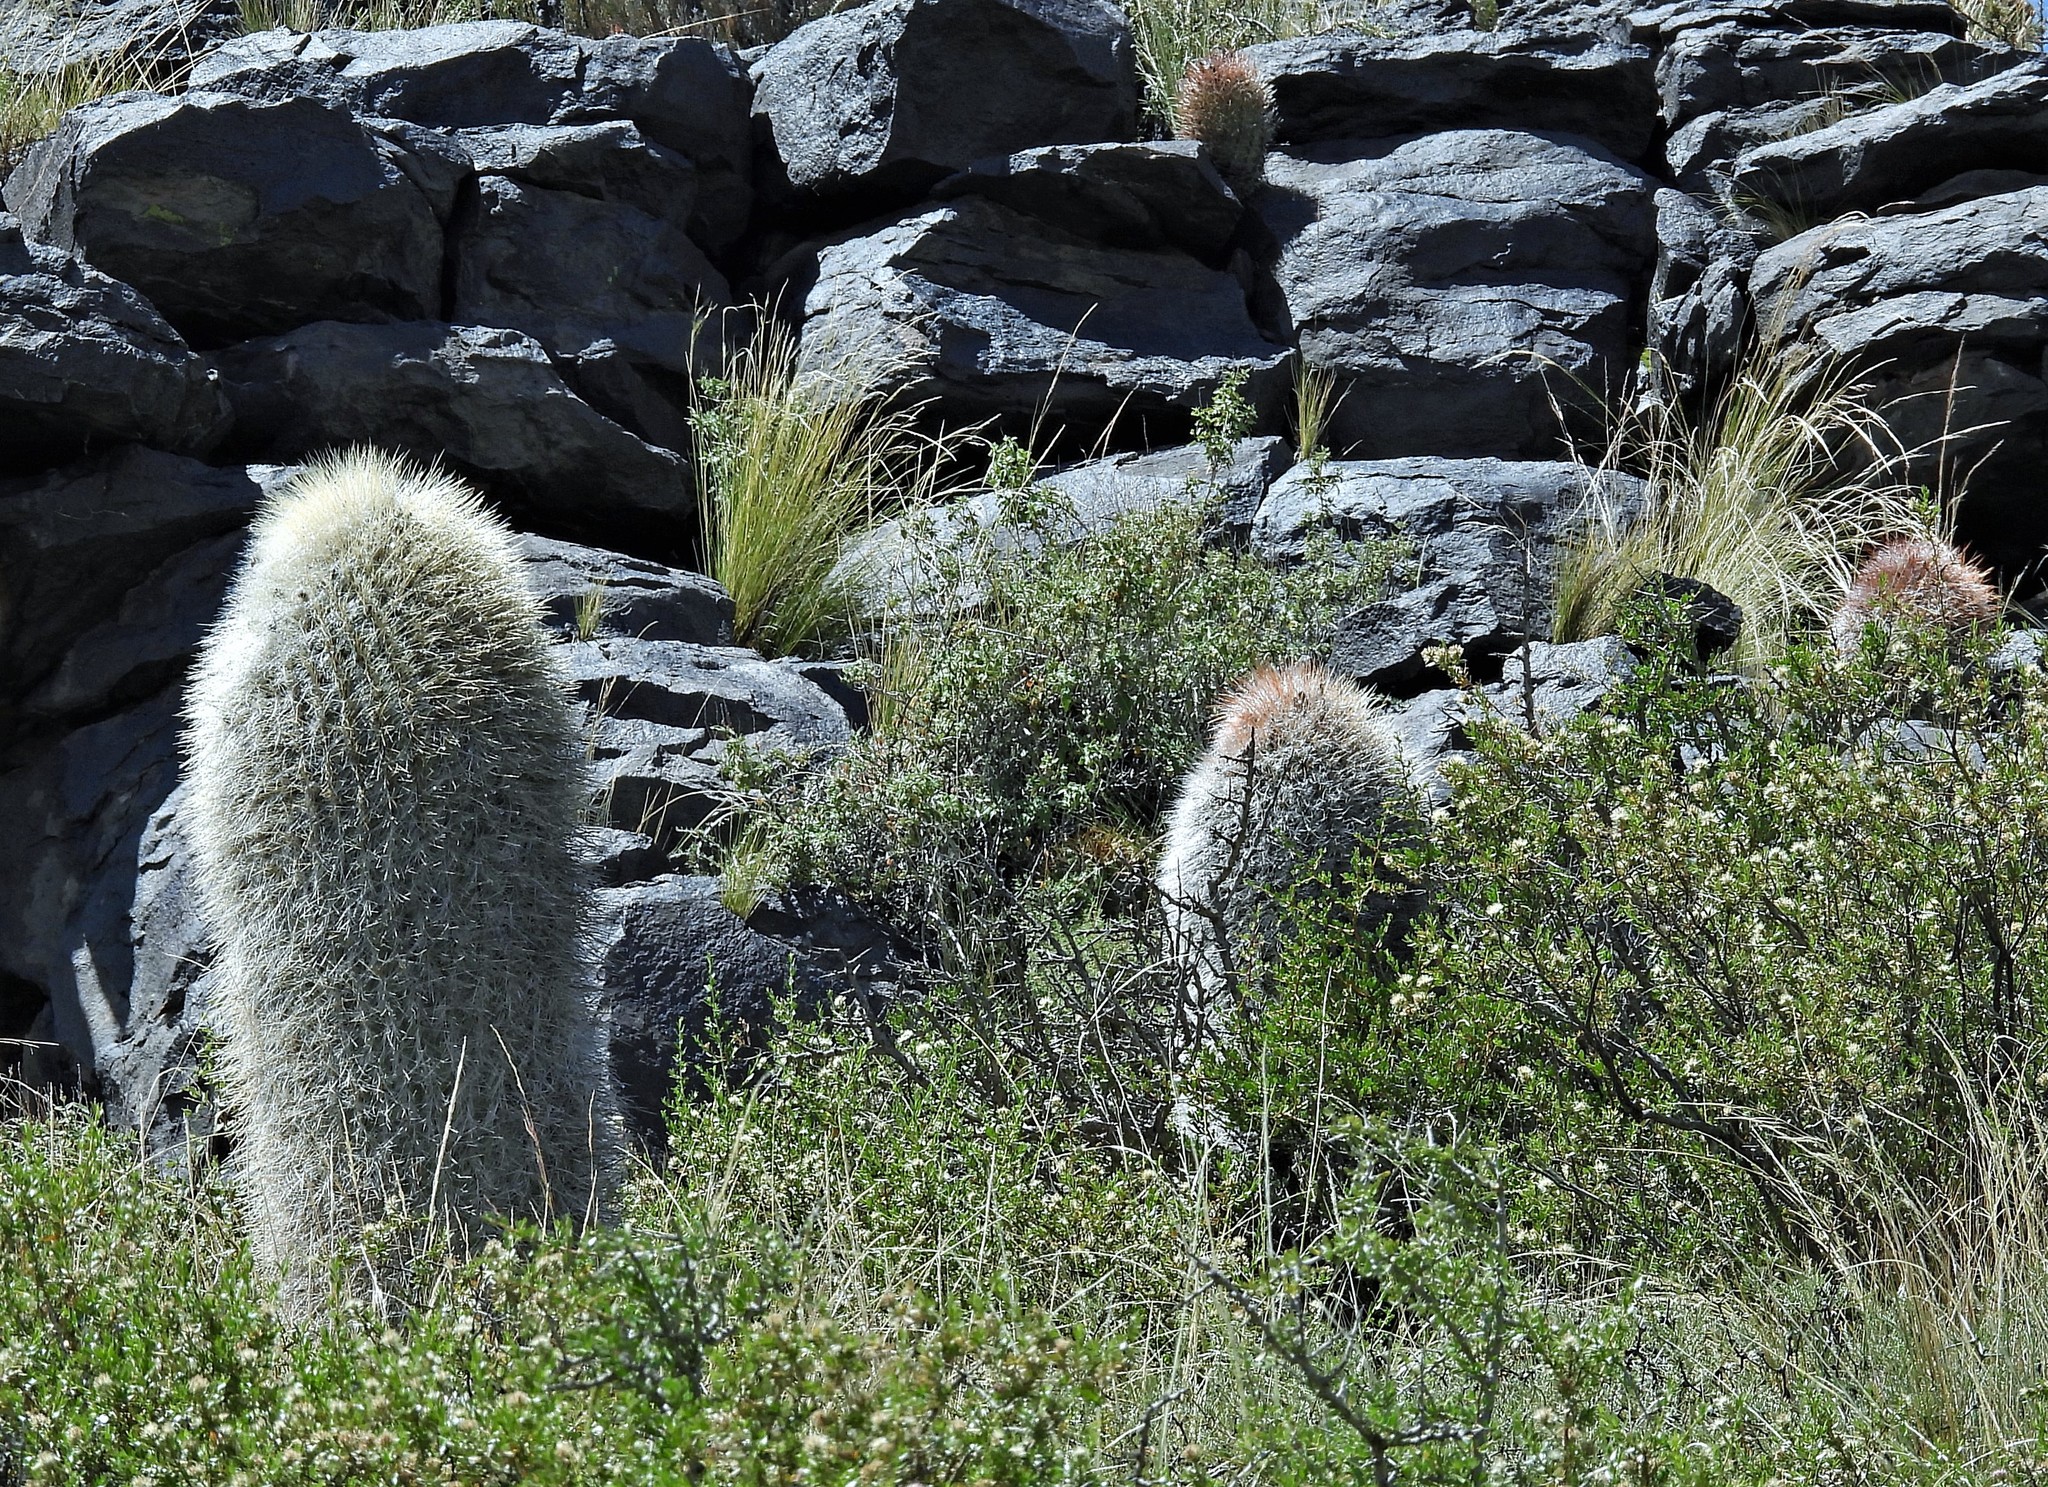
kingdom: Plantae
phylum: Tracheophyta
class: Magnoliopsida
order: Caryophyllales
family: Cactaceae
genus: Denmoza
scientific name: Denmoza rhodacantha
